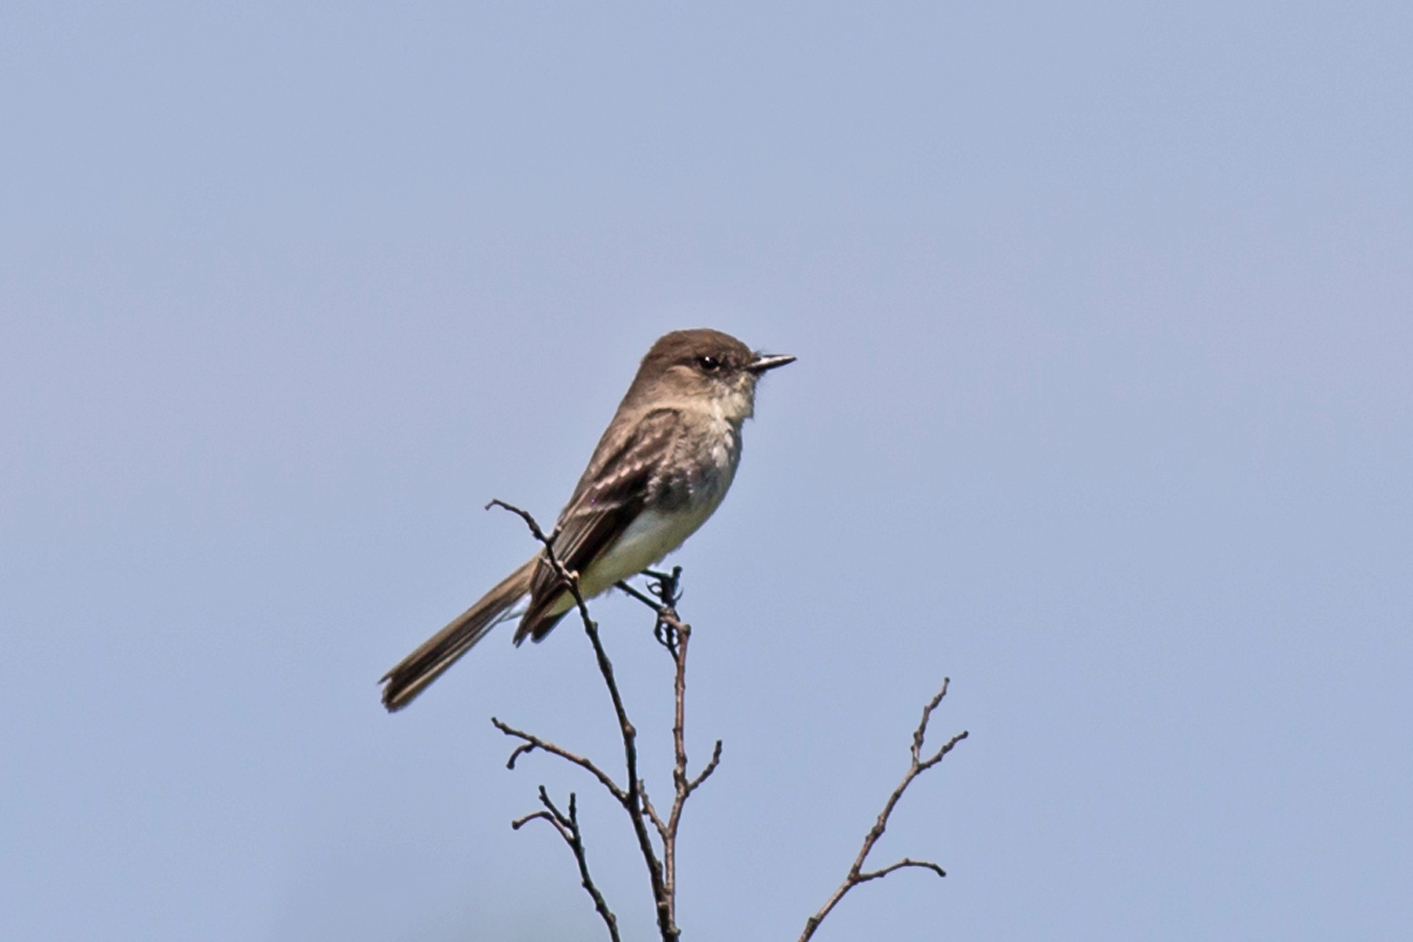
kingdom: Animalia
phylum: Chordata
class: Aves
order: Passeriformes
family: Tyrannidae
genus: Sayornis
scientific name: Sayornis phoebe
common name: Eastern phoebe
